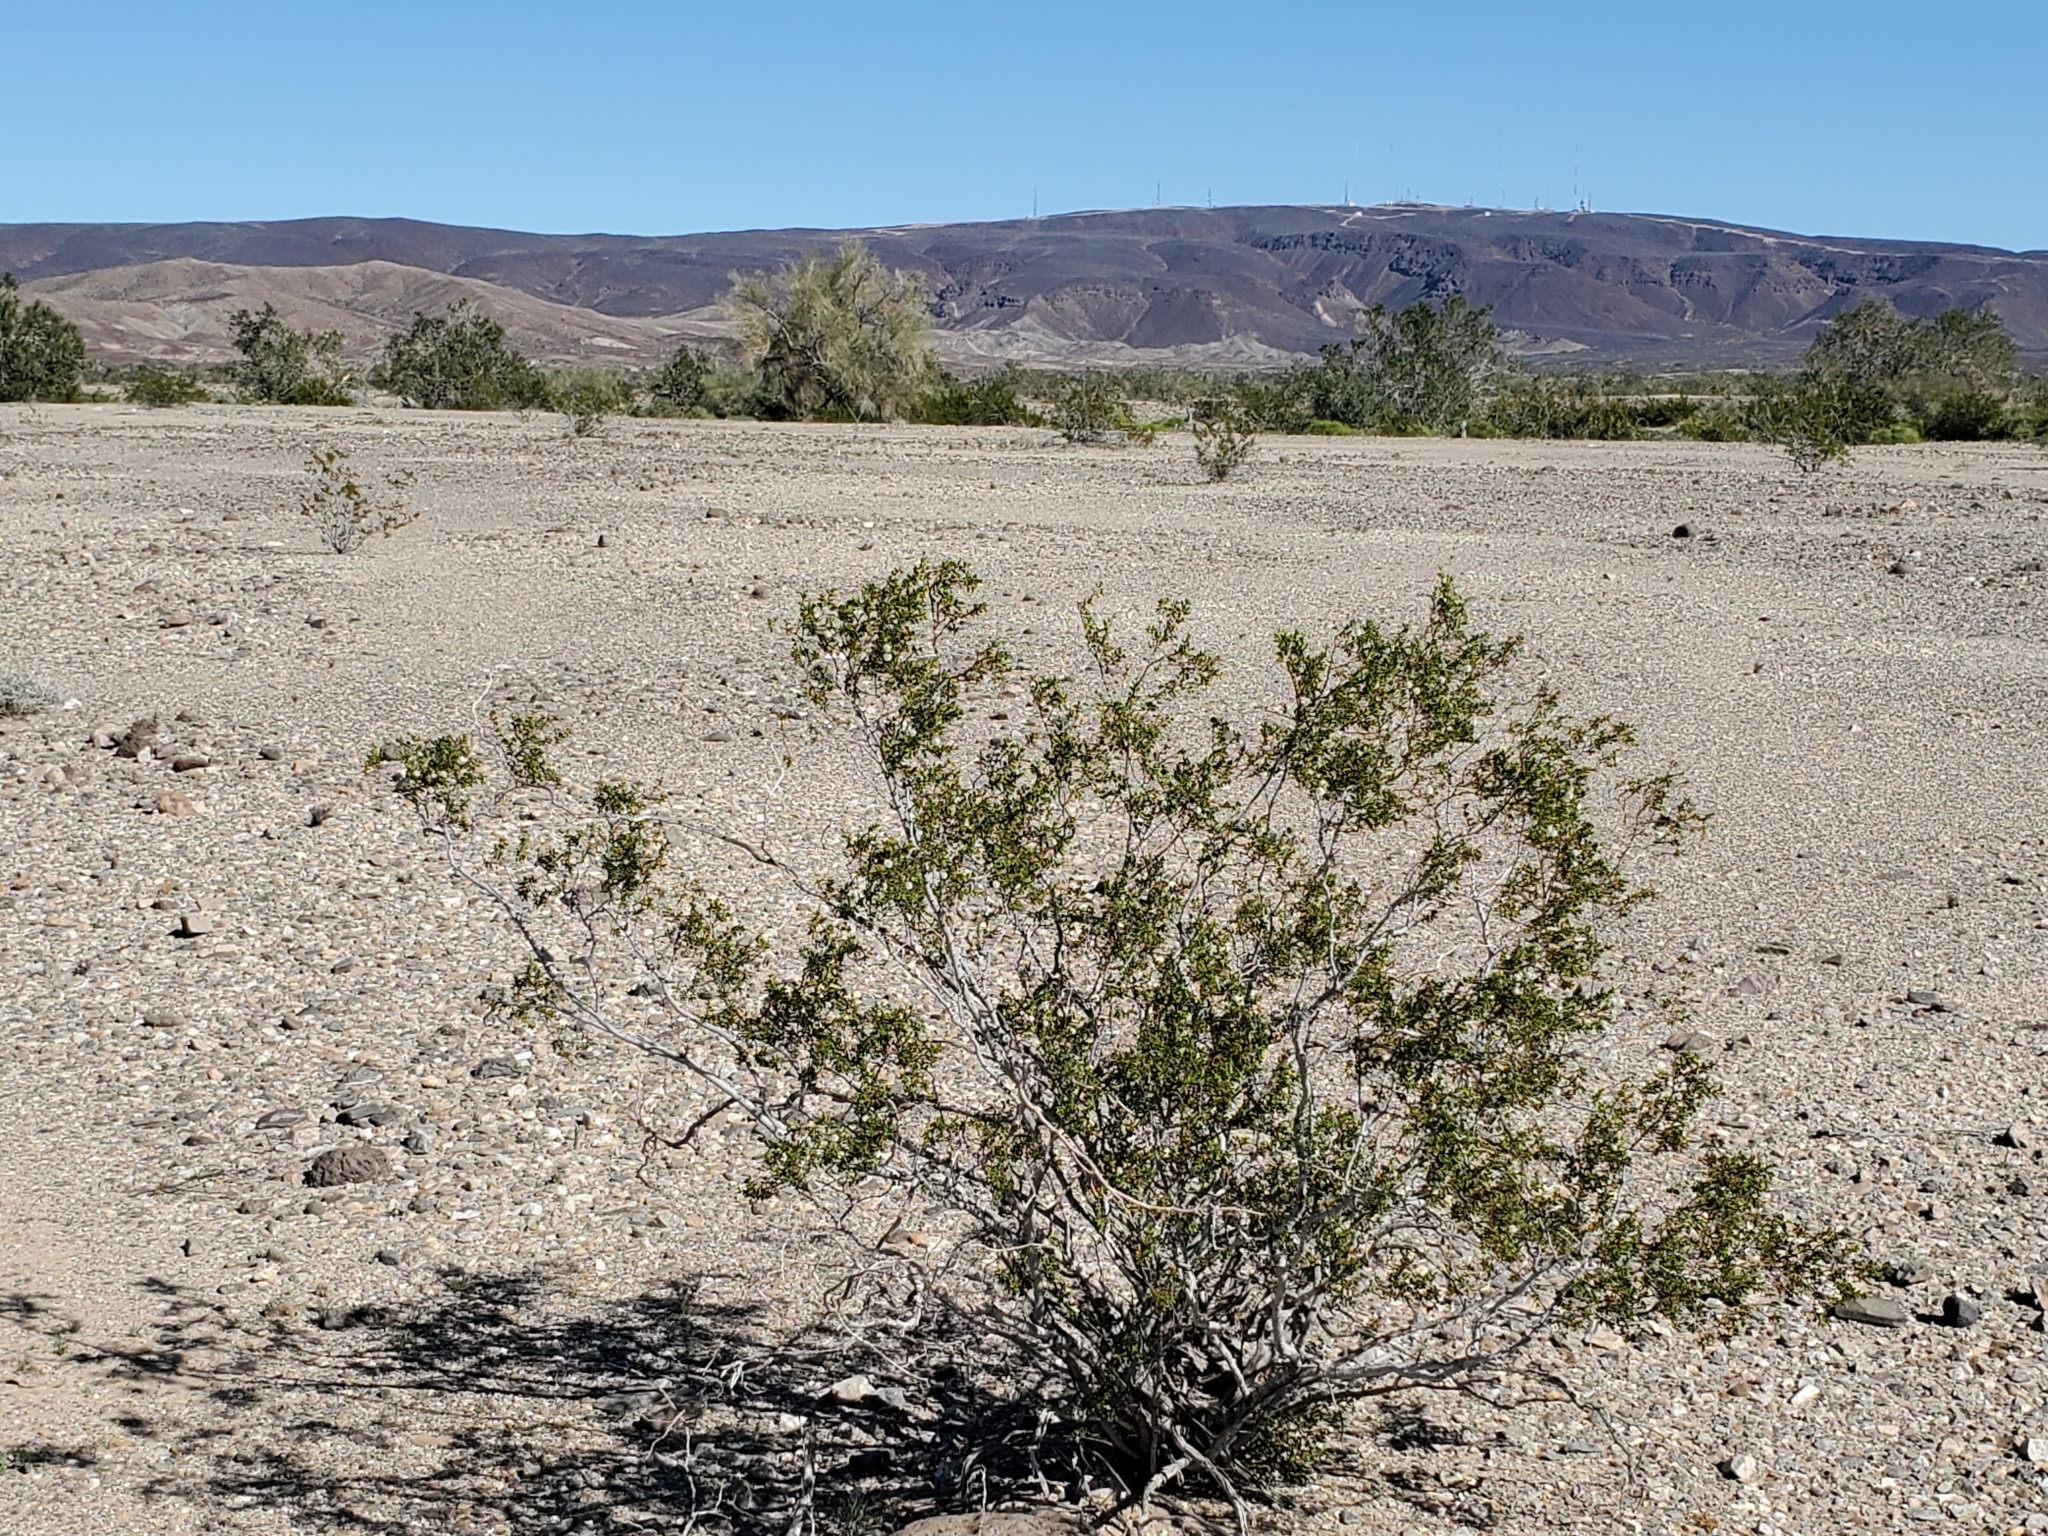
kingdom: Plantae
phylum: Tracheophyta
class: Magnoliopsida
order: Zygophyllales
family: Zygophyllaceae
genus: Larrea
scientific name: Larrea tridentata
